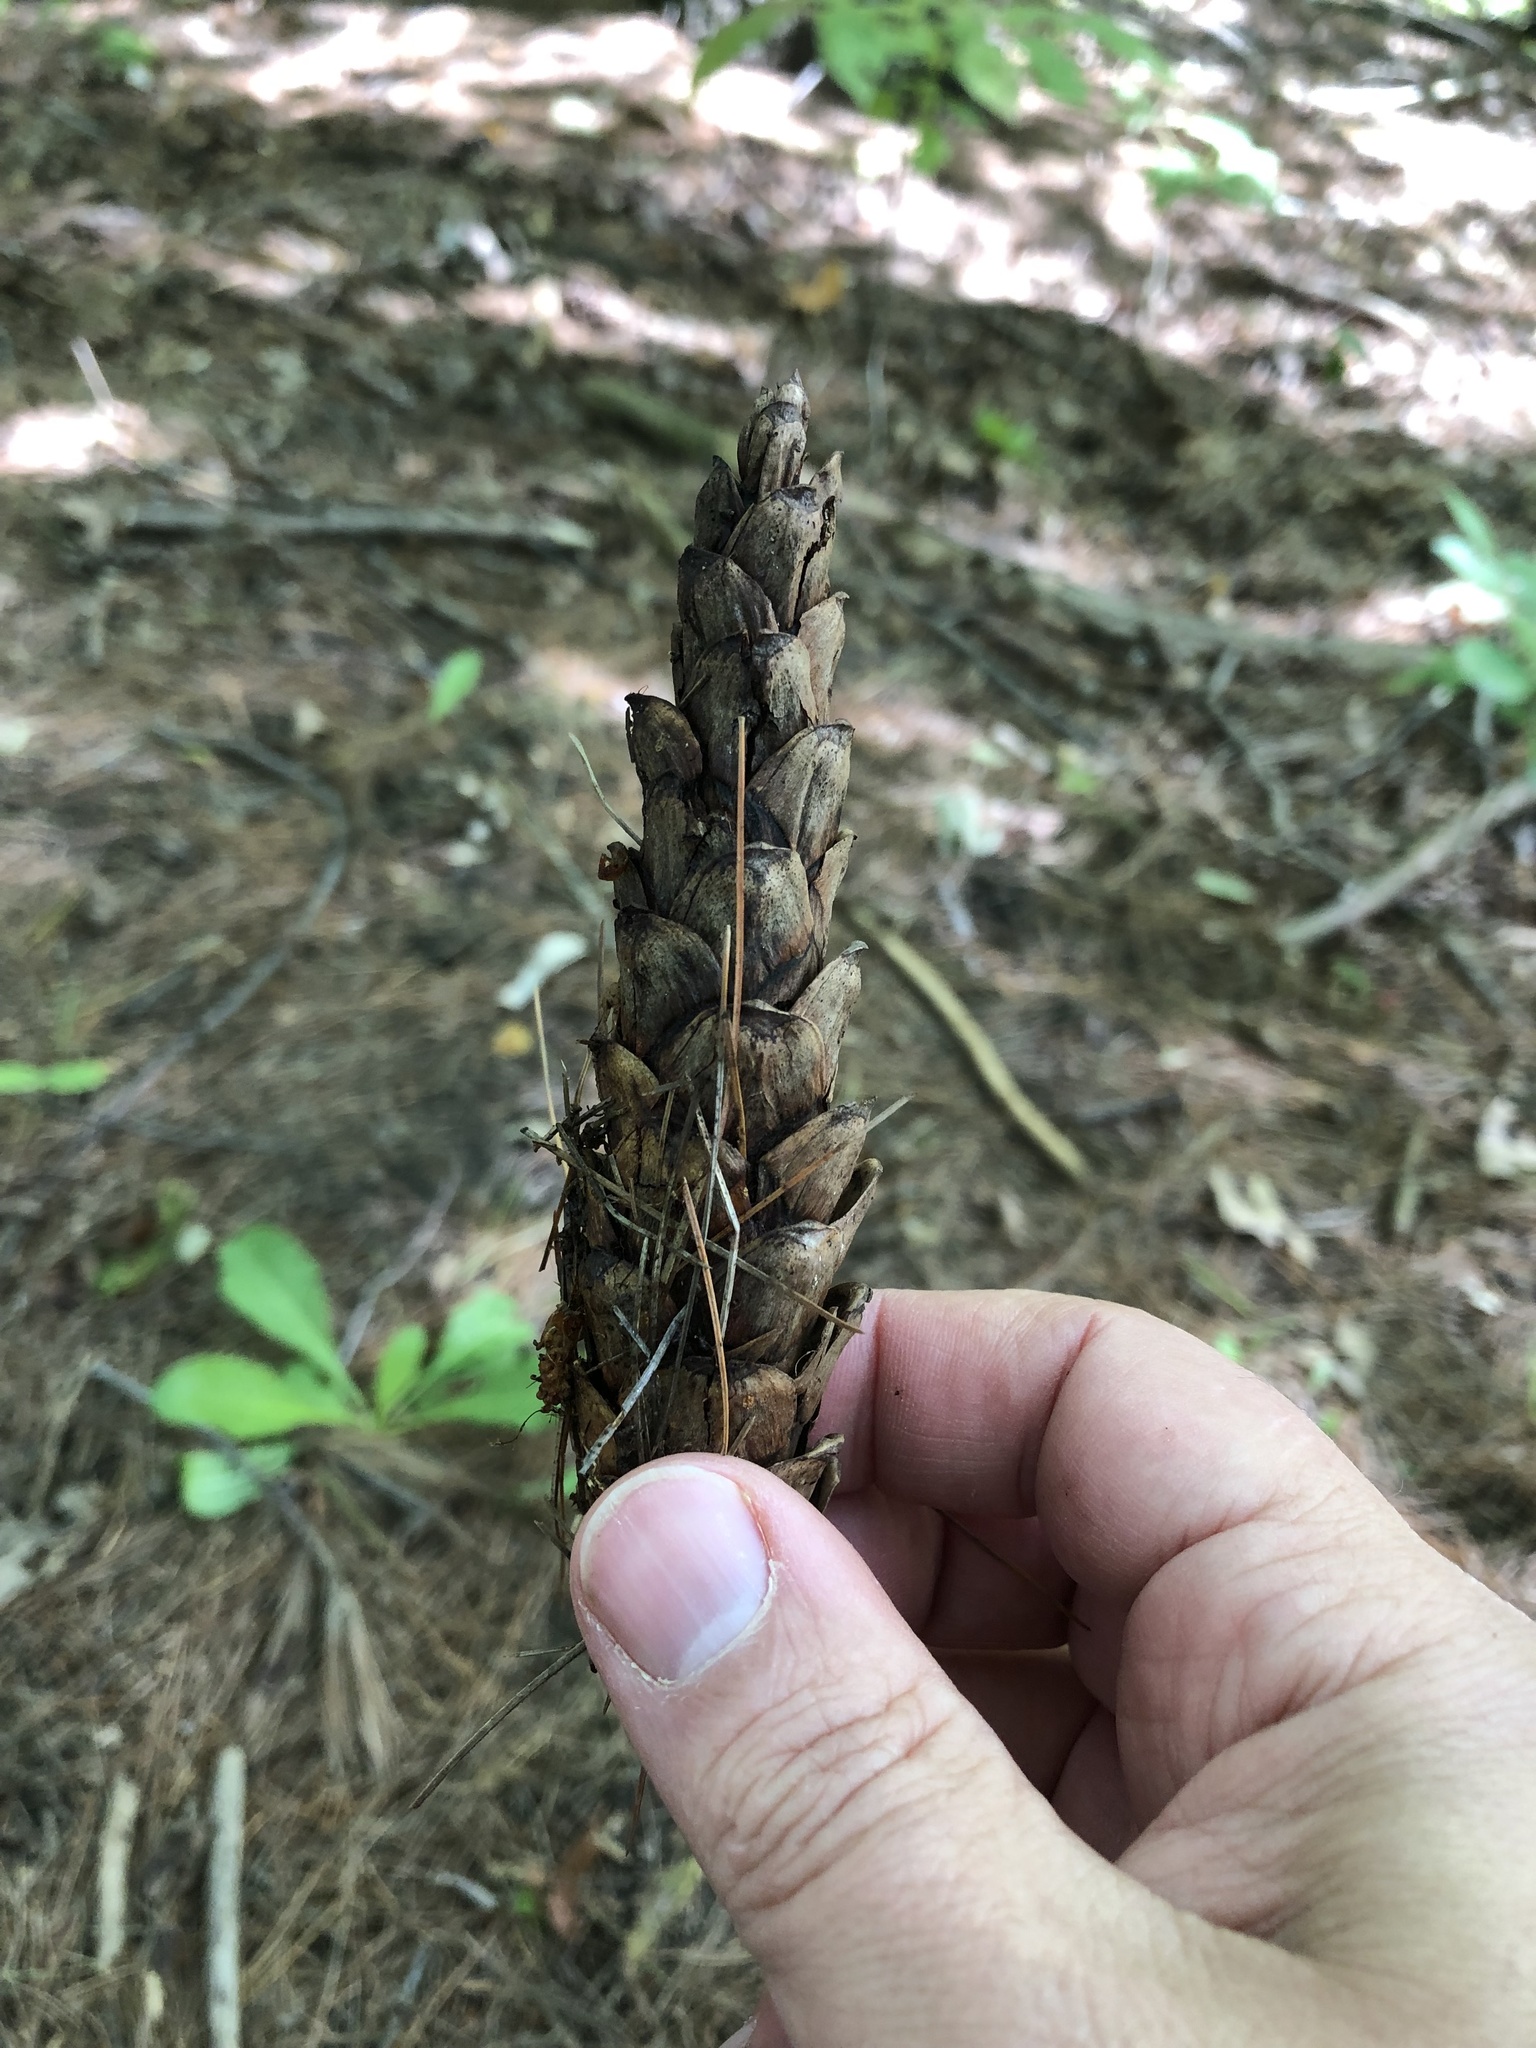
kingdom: Plantae
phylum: Tracheophyta
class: Pinopsida
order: Pinales
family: Pinaceae
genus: Pinus
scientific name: Pinus strobus
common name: Weymouth pine
